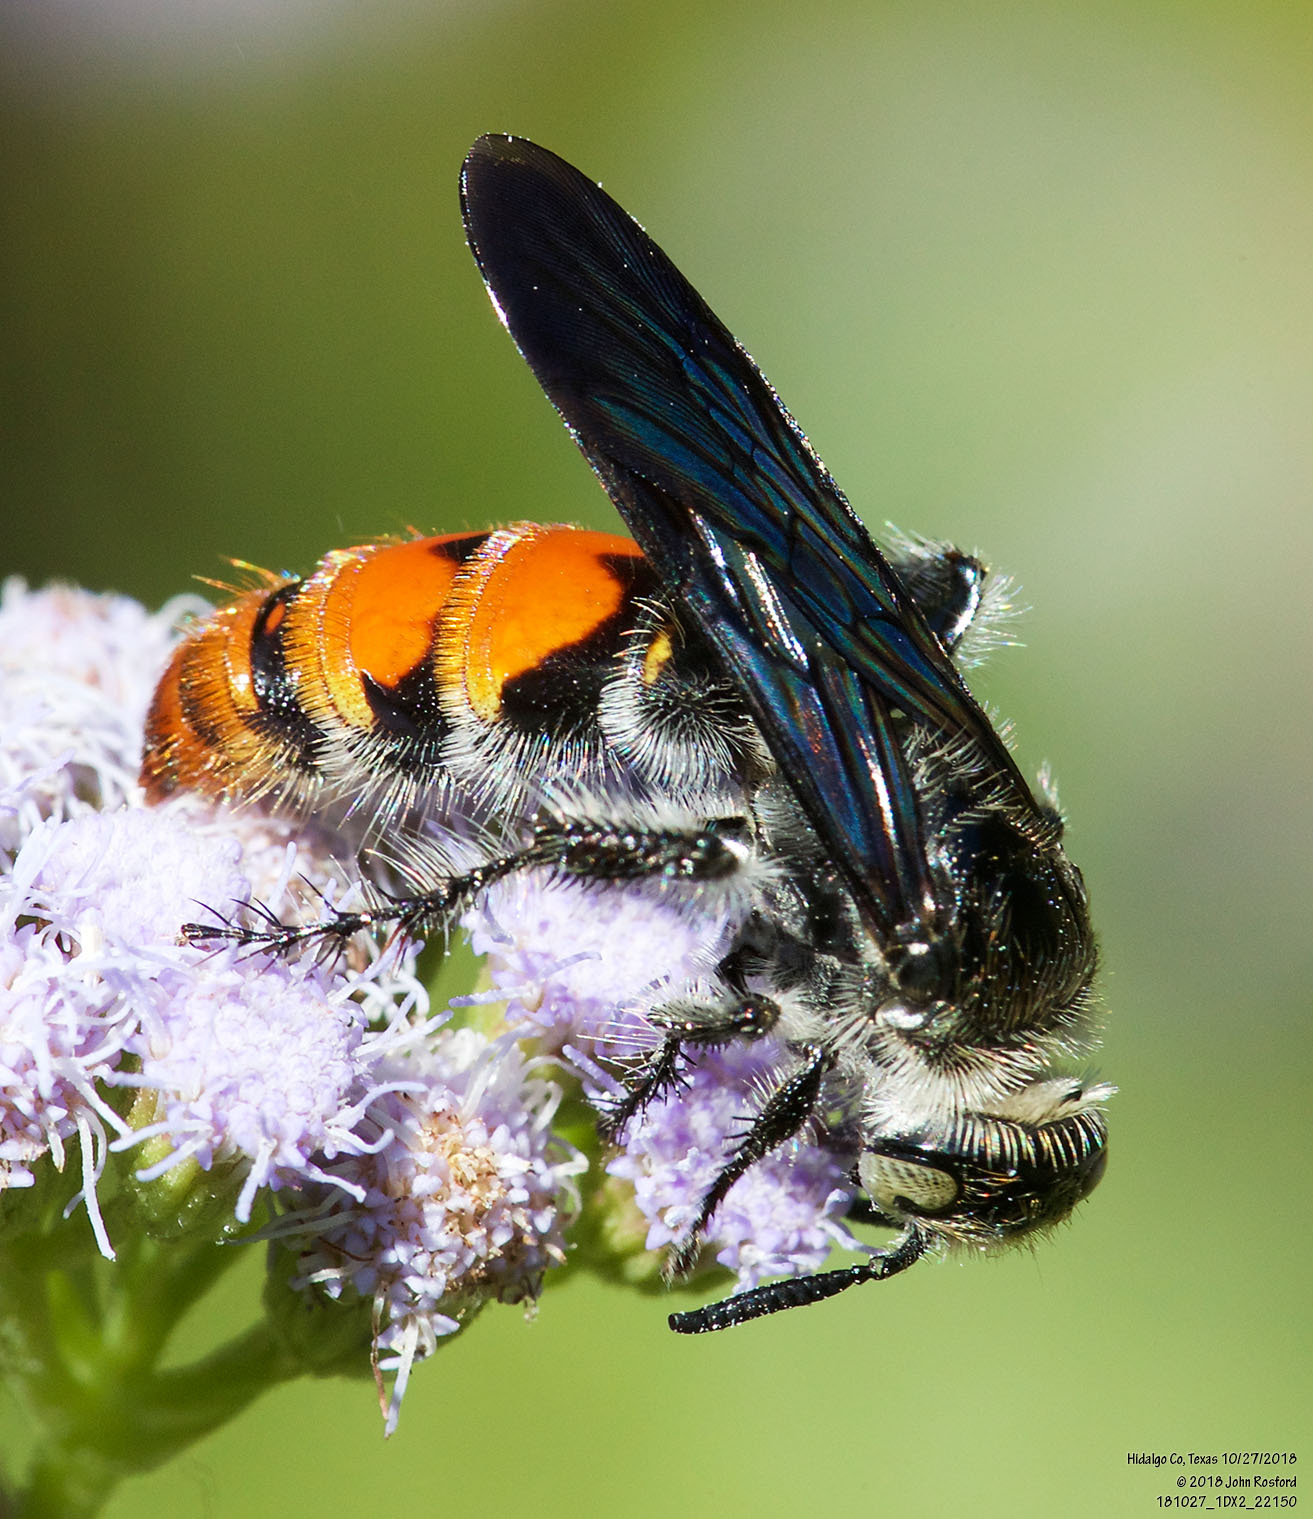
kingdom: Animalia
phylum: Arthropoda
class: Insecta
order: Hymenoptera
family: Scoliidae
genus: Dielis
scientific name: Dielis tolteca
